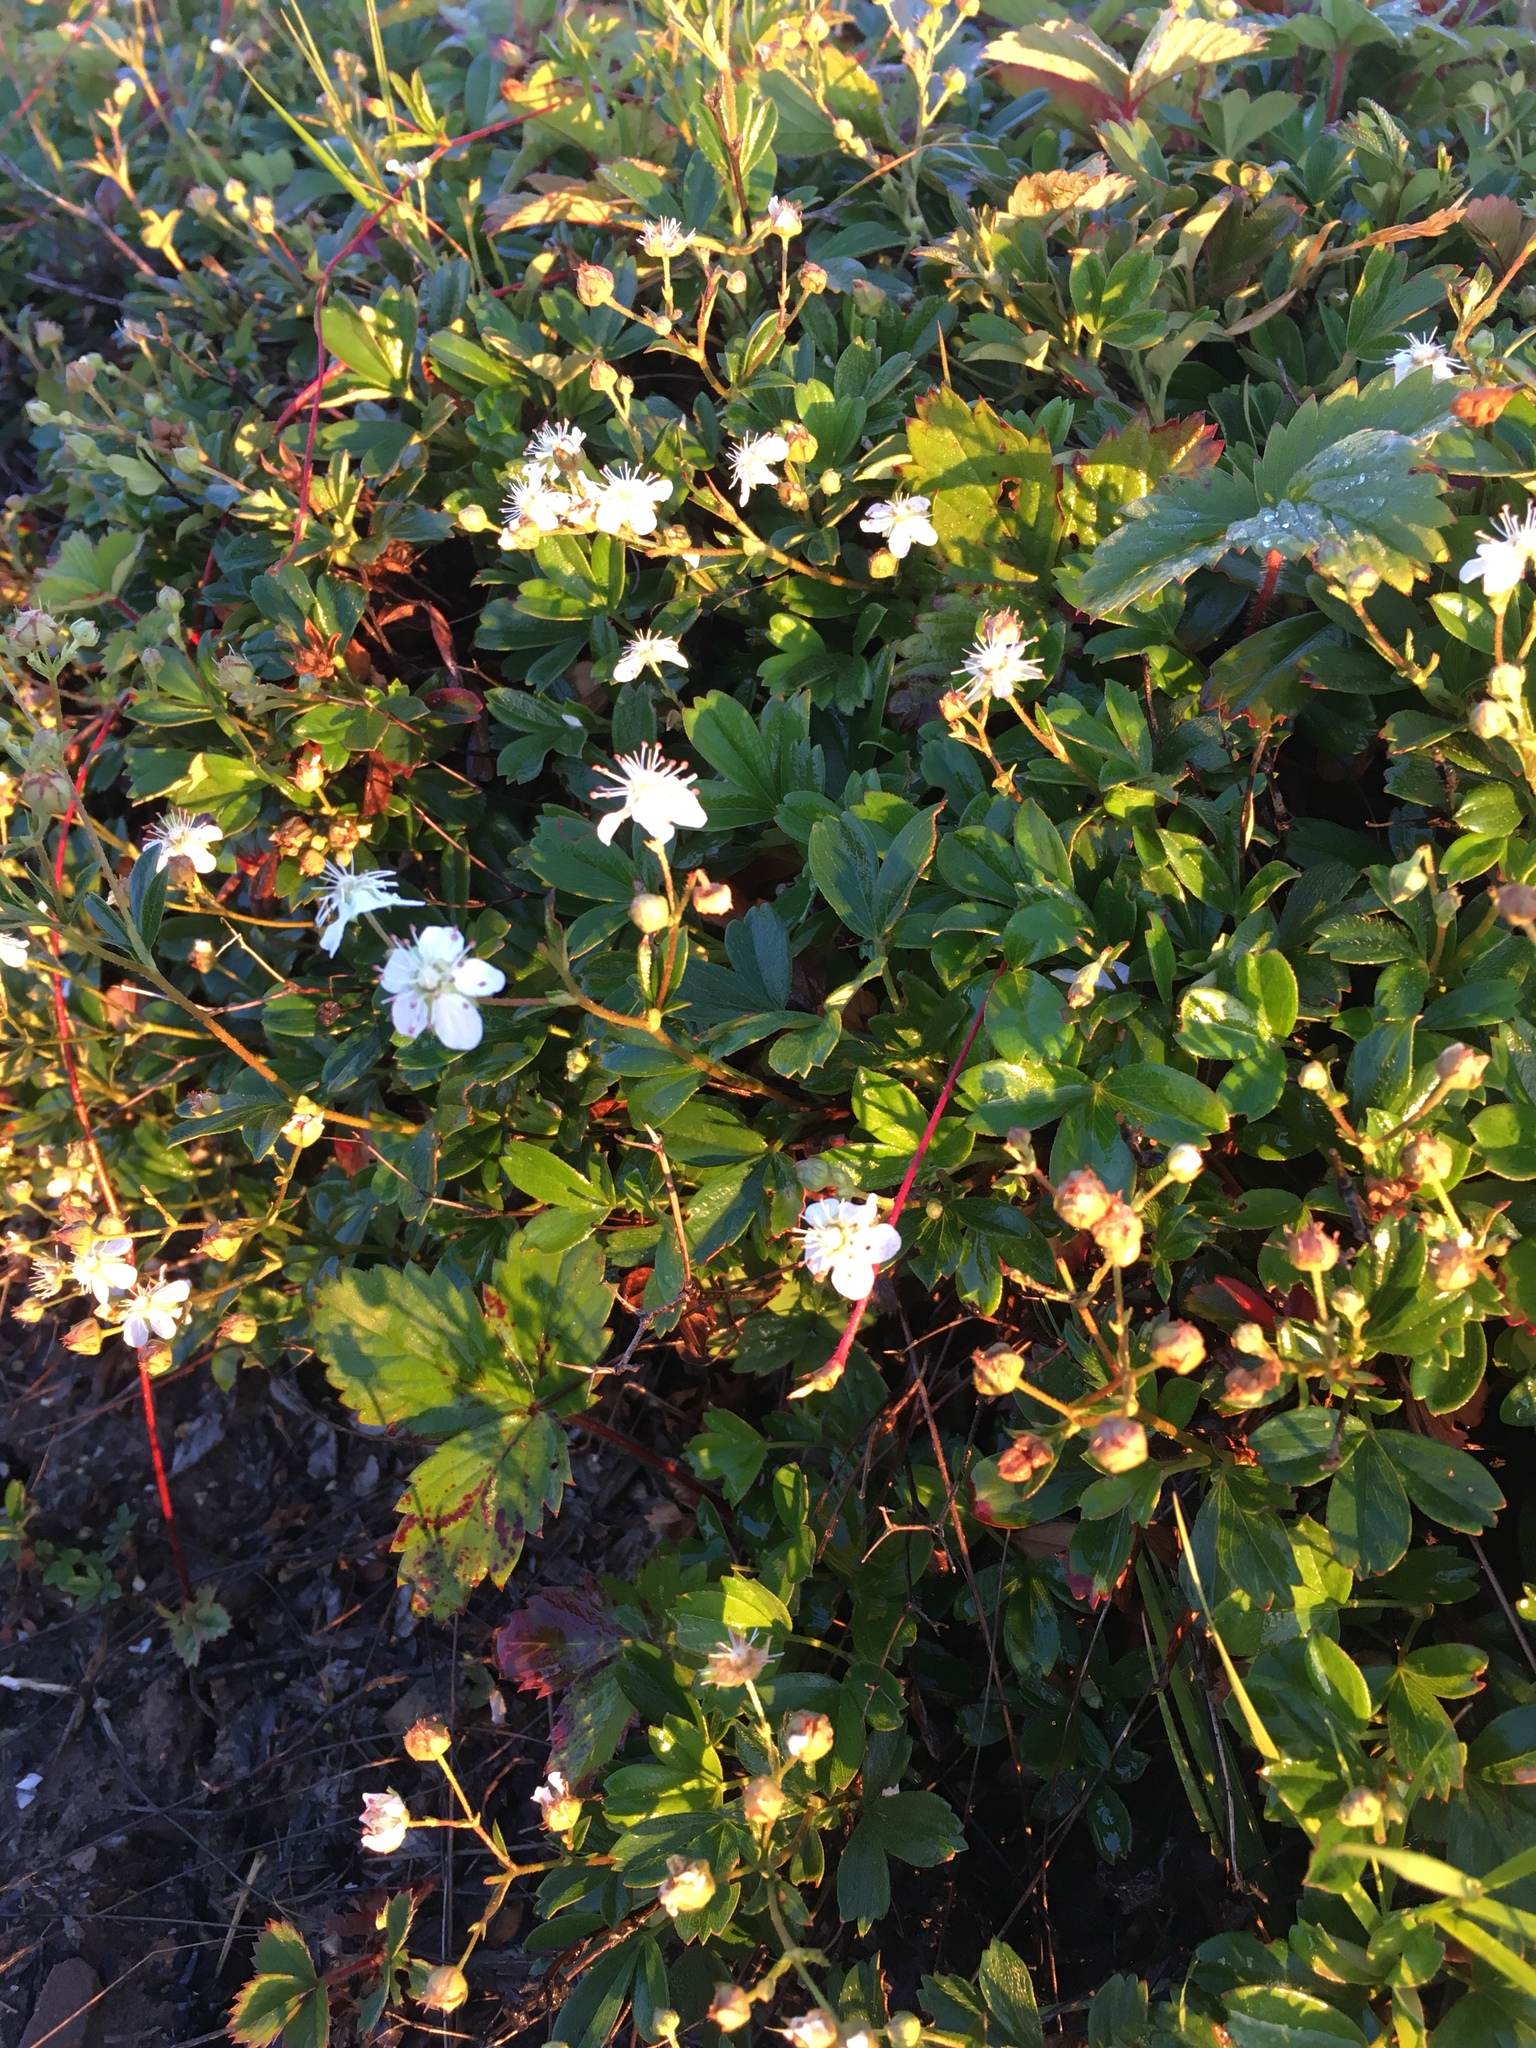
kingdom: Plantae
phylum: Tracheophyta
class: Magnoliopsida
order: Rosales
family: Rosaceae
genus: Sibbaldia
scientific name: Sibbaldia tridentata
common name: Three-toothed cinquefoil
